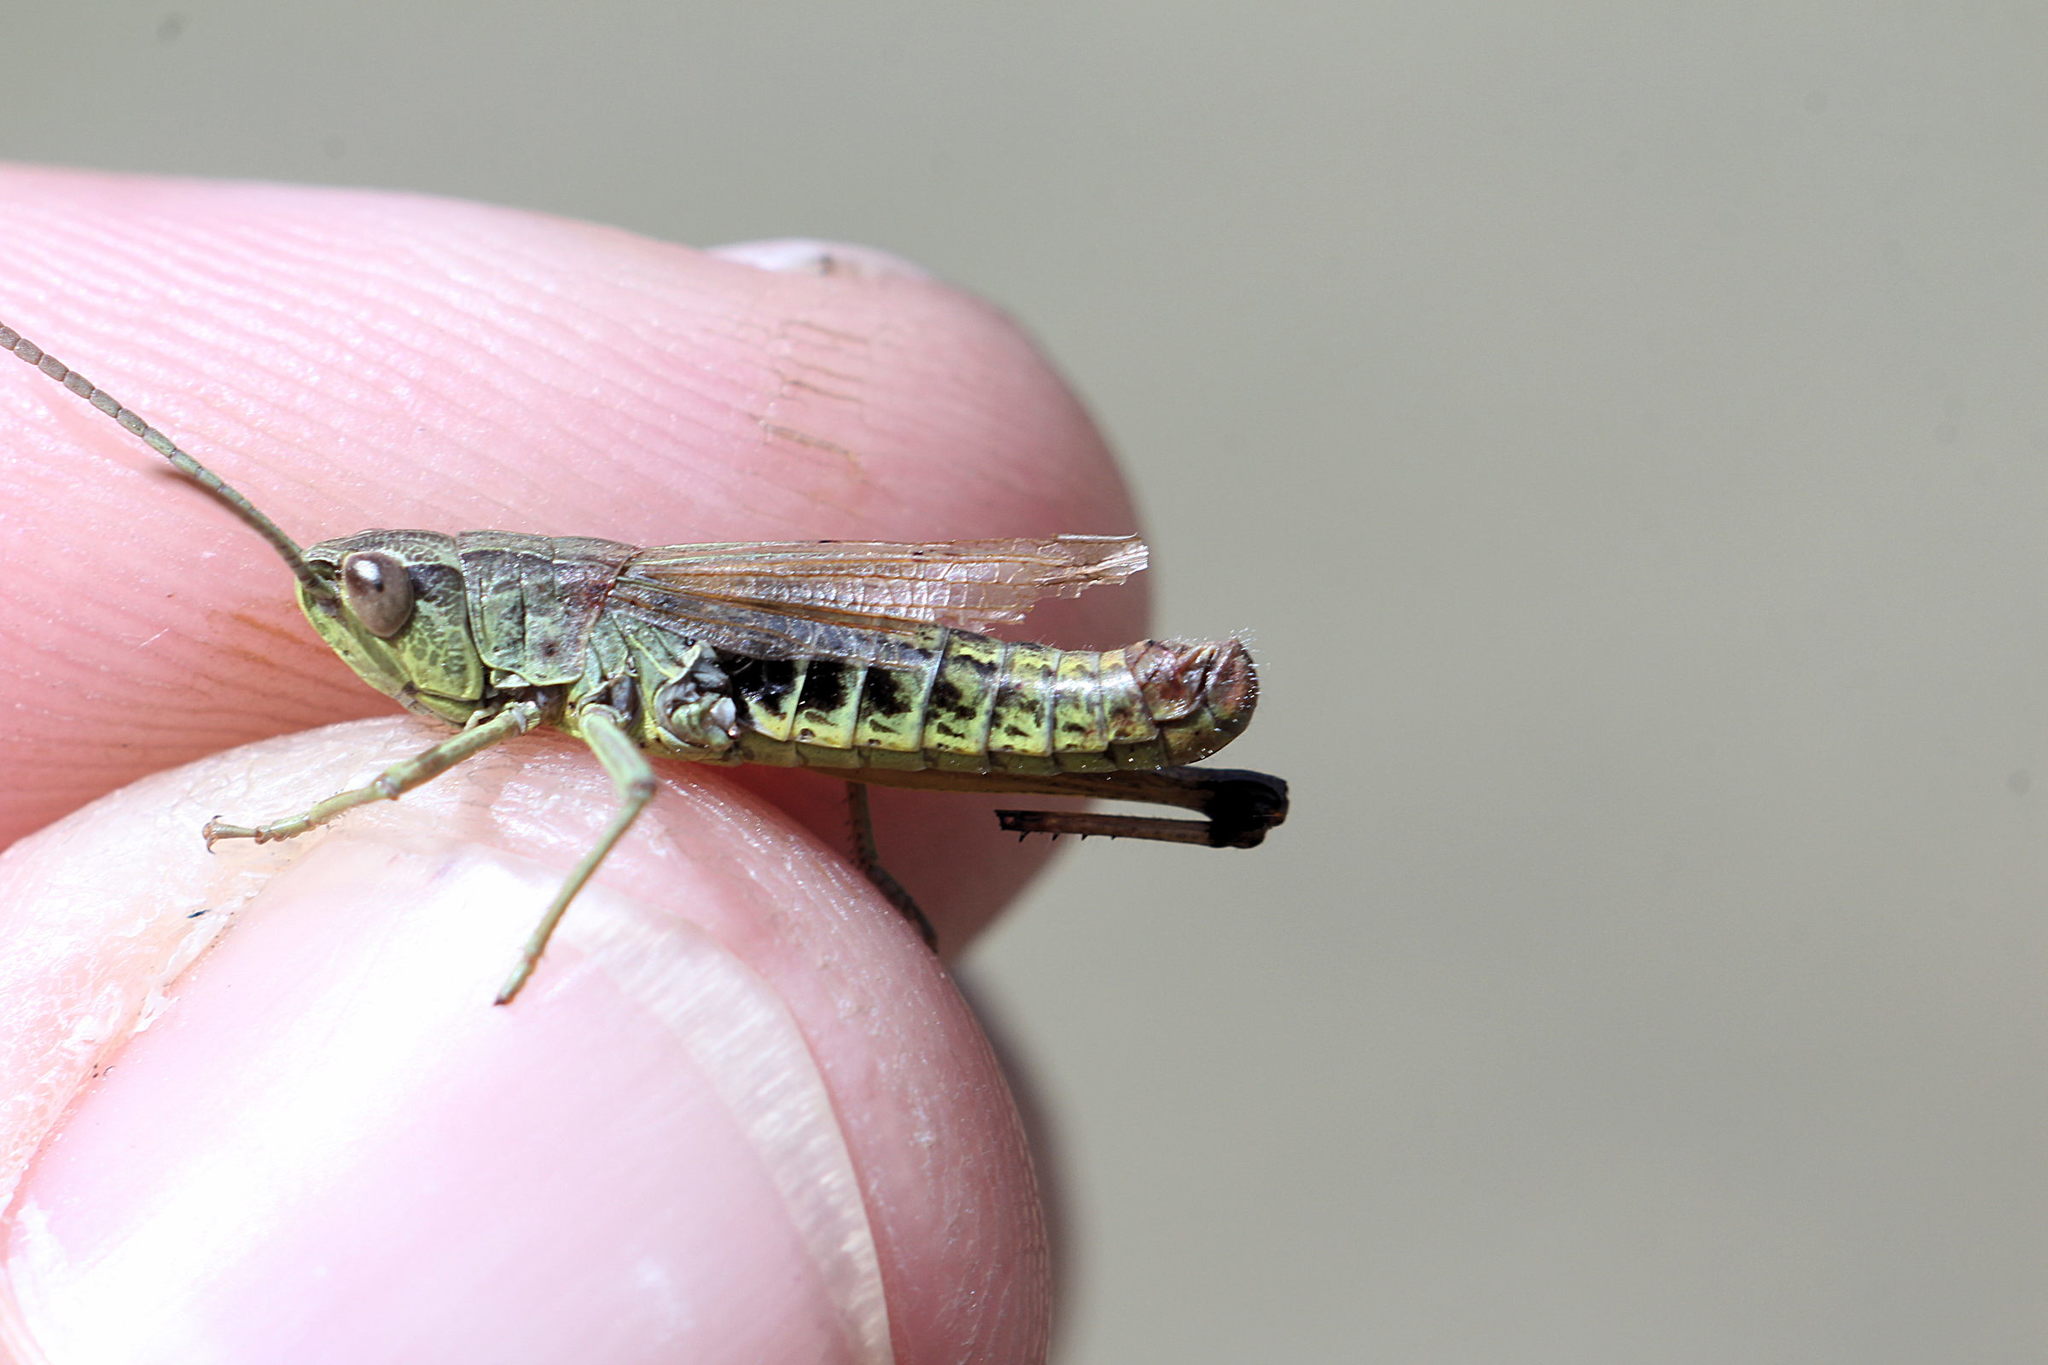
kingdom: Animalia
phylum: Arthropoda
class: Insecta
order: Orthoptera
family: Acrididae
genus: Pseudochorthippus
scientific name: Pseudochorthippus parallelus
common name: Meadow grasshopper
